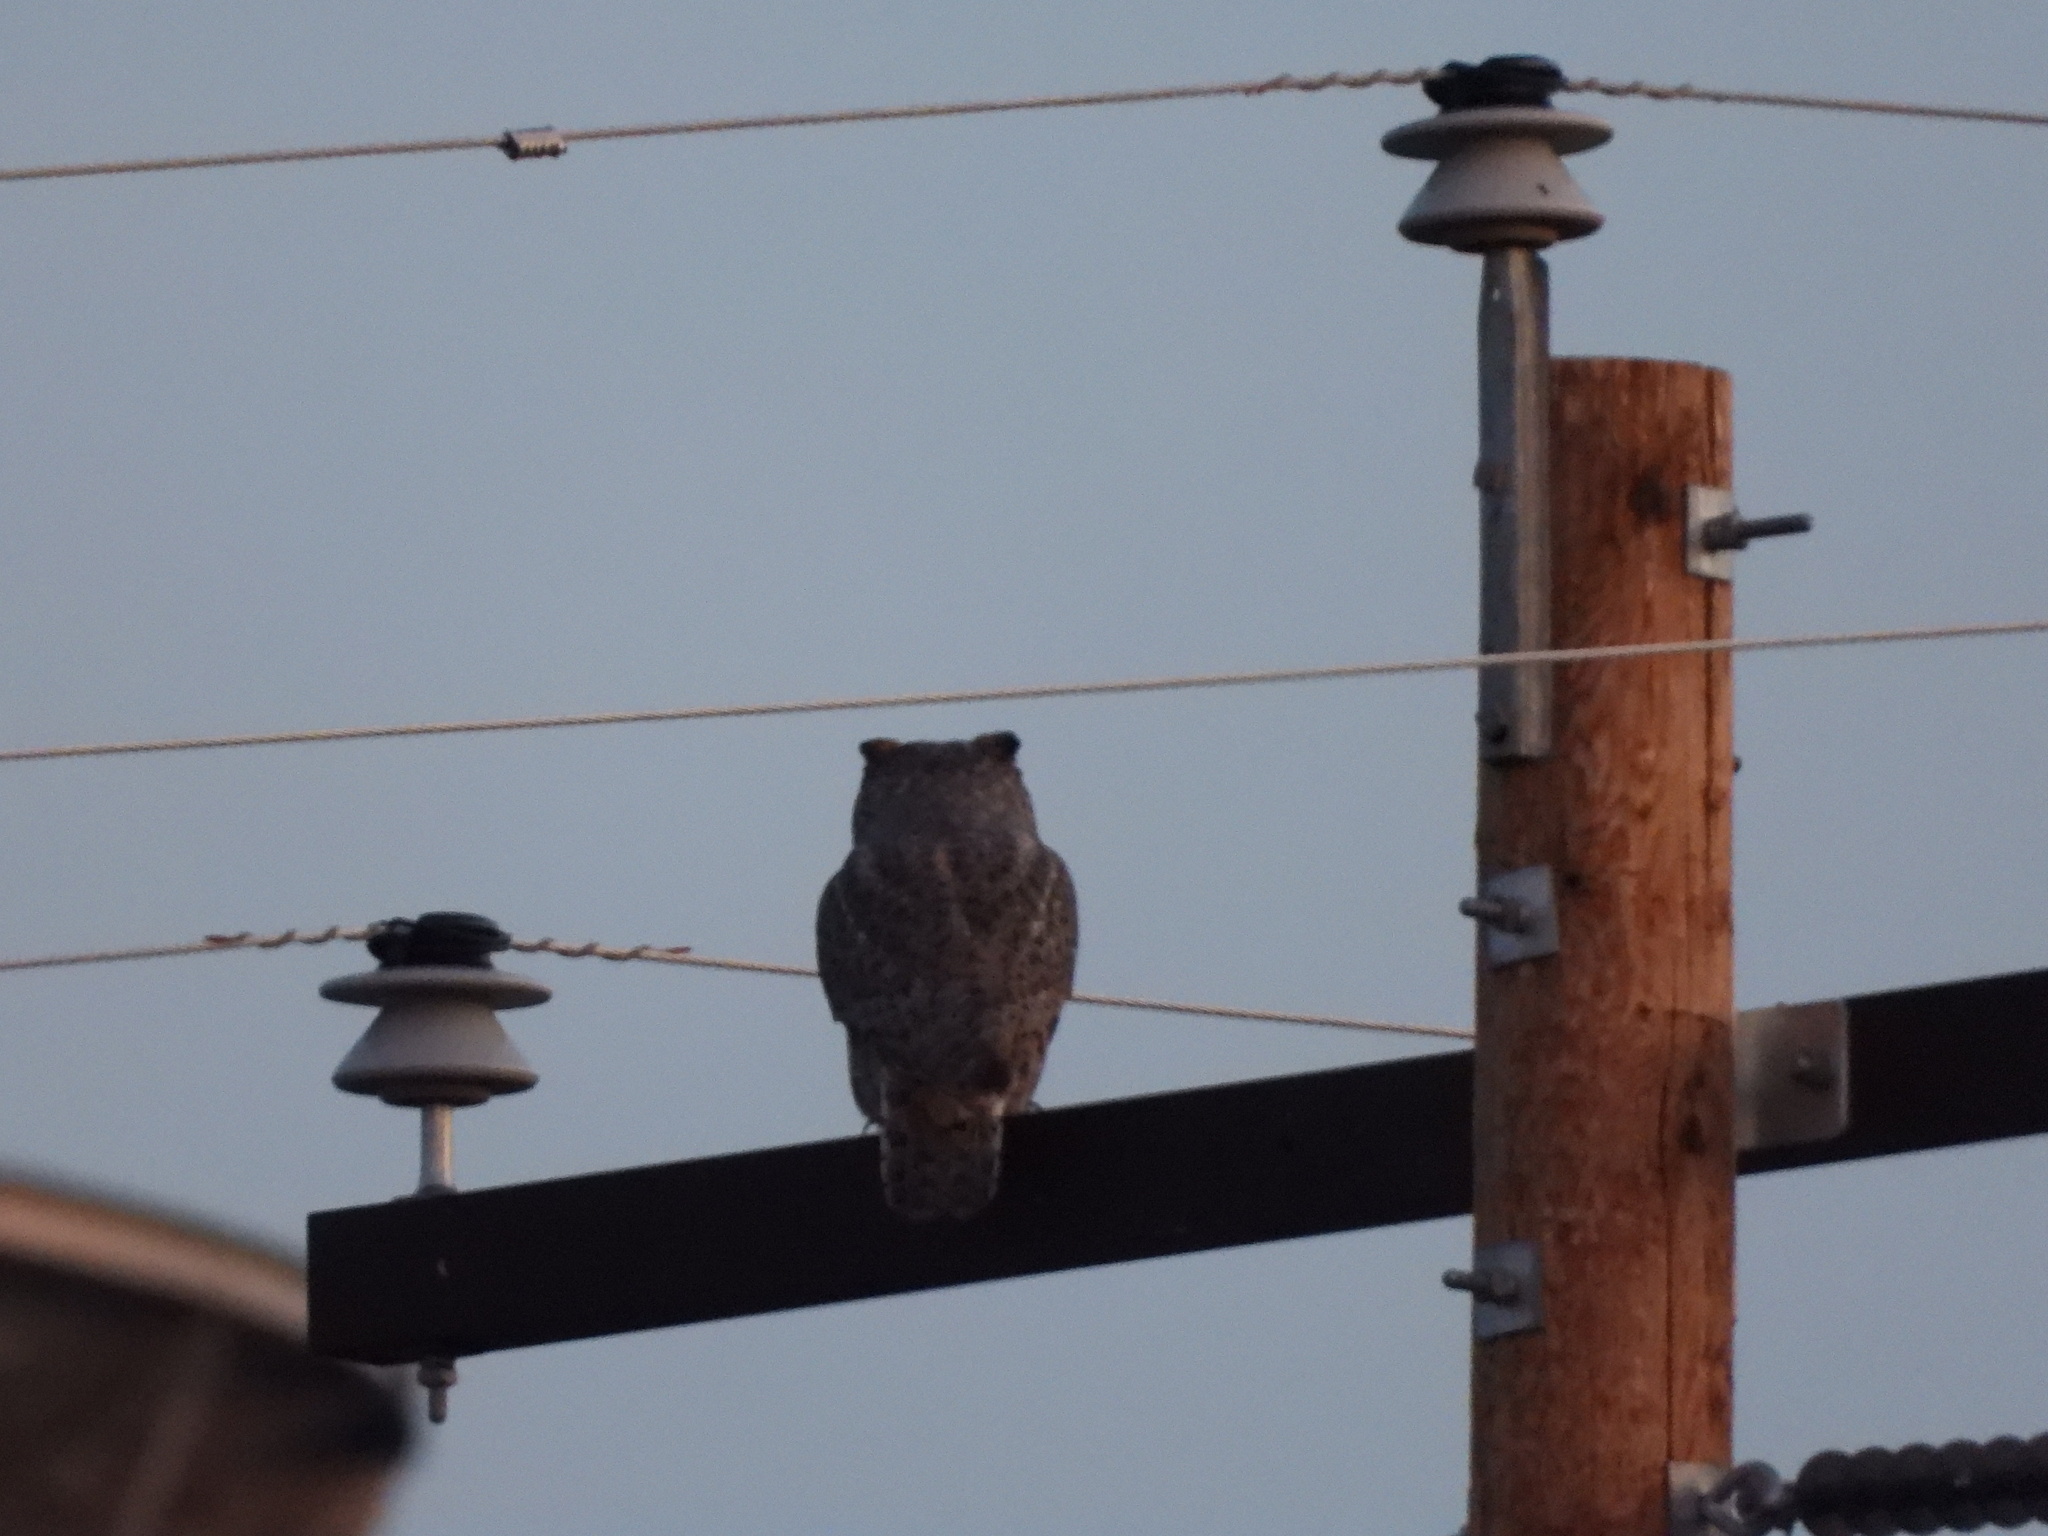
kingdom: Animalia
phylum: Chordata
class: Aves
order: Strigiformes
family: Strigidae
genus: Bubo
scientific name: Bubo virginianus
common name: Great horned owl
